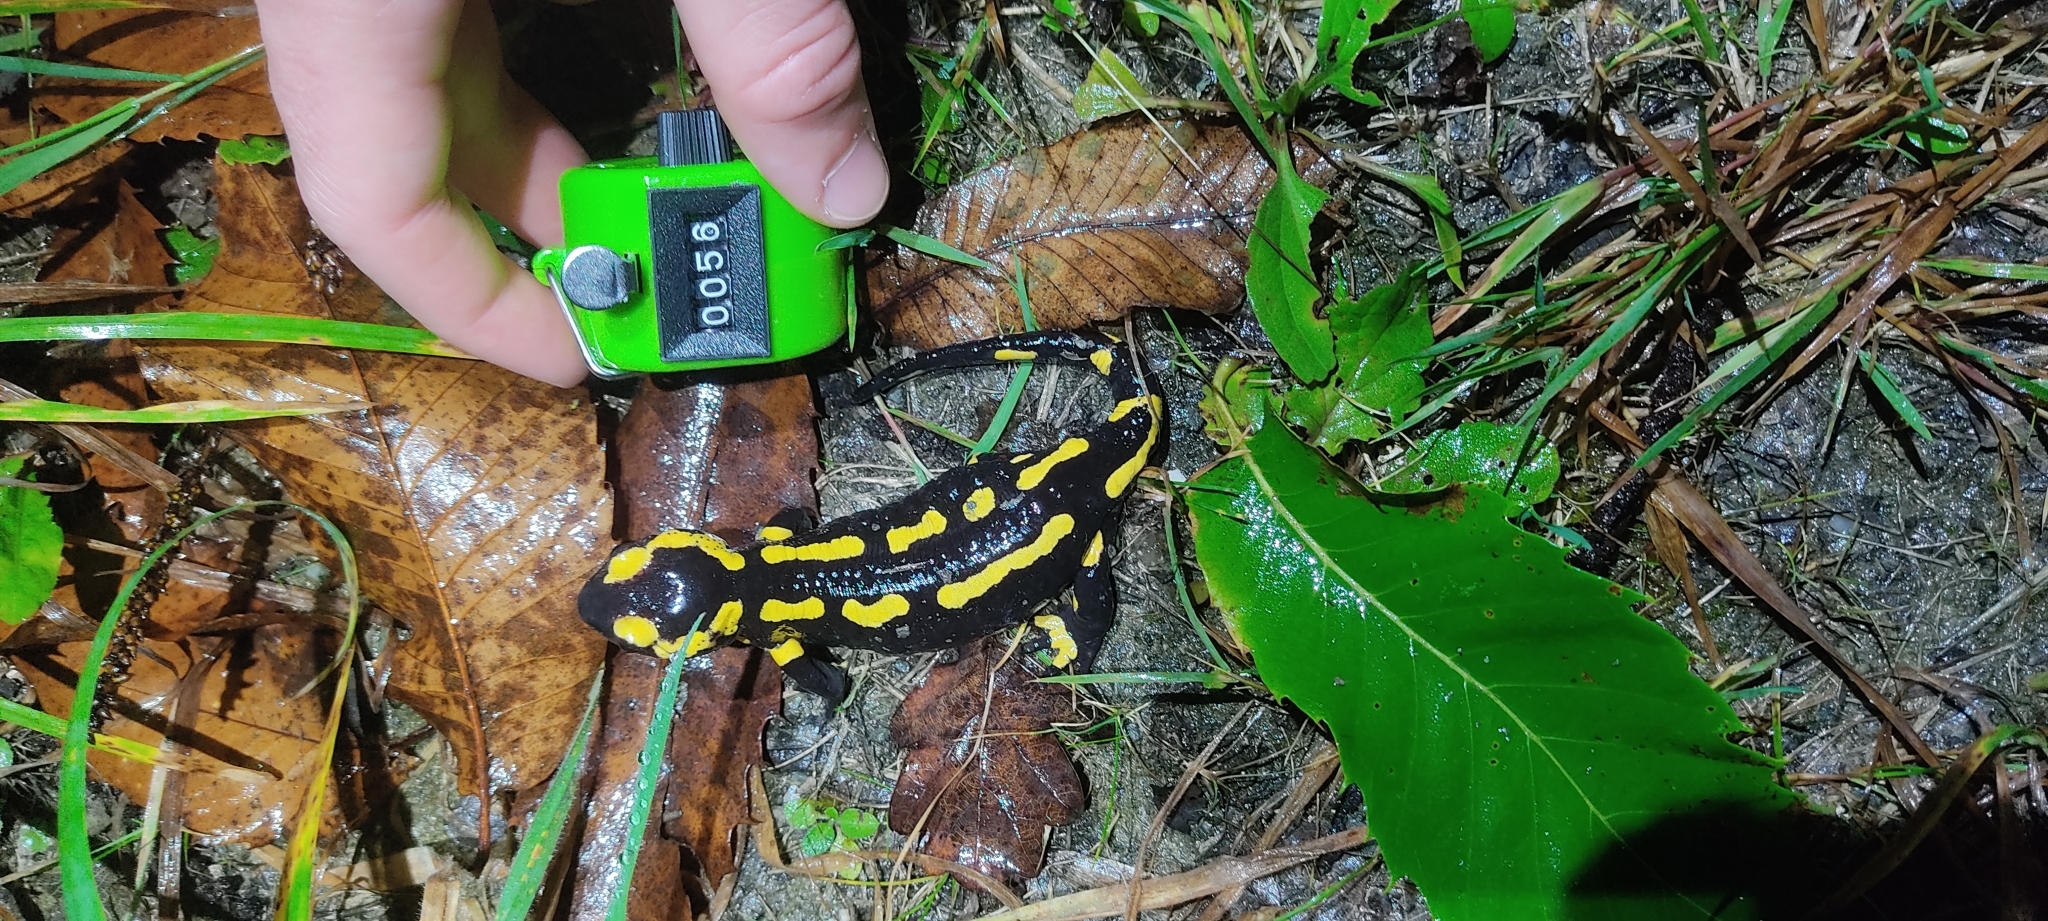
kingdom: Animalia
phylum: Chordata
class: Amphibia
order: Caudata
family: Salamandridae
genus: Salamandra
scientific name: Salamandra salamandra
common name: Fire salamander
